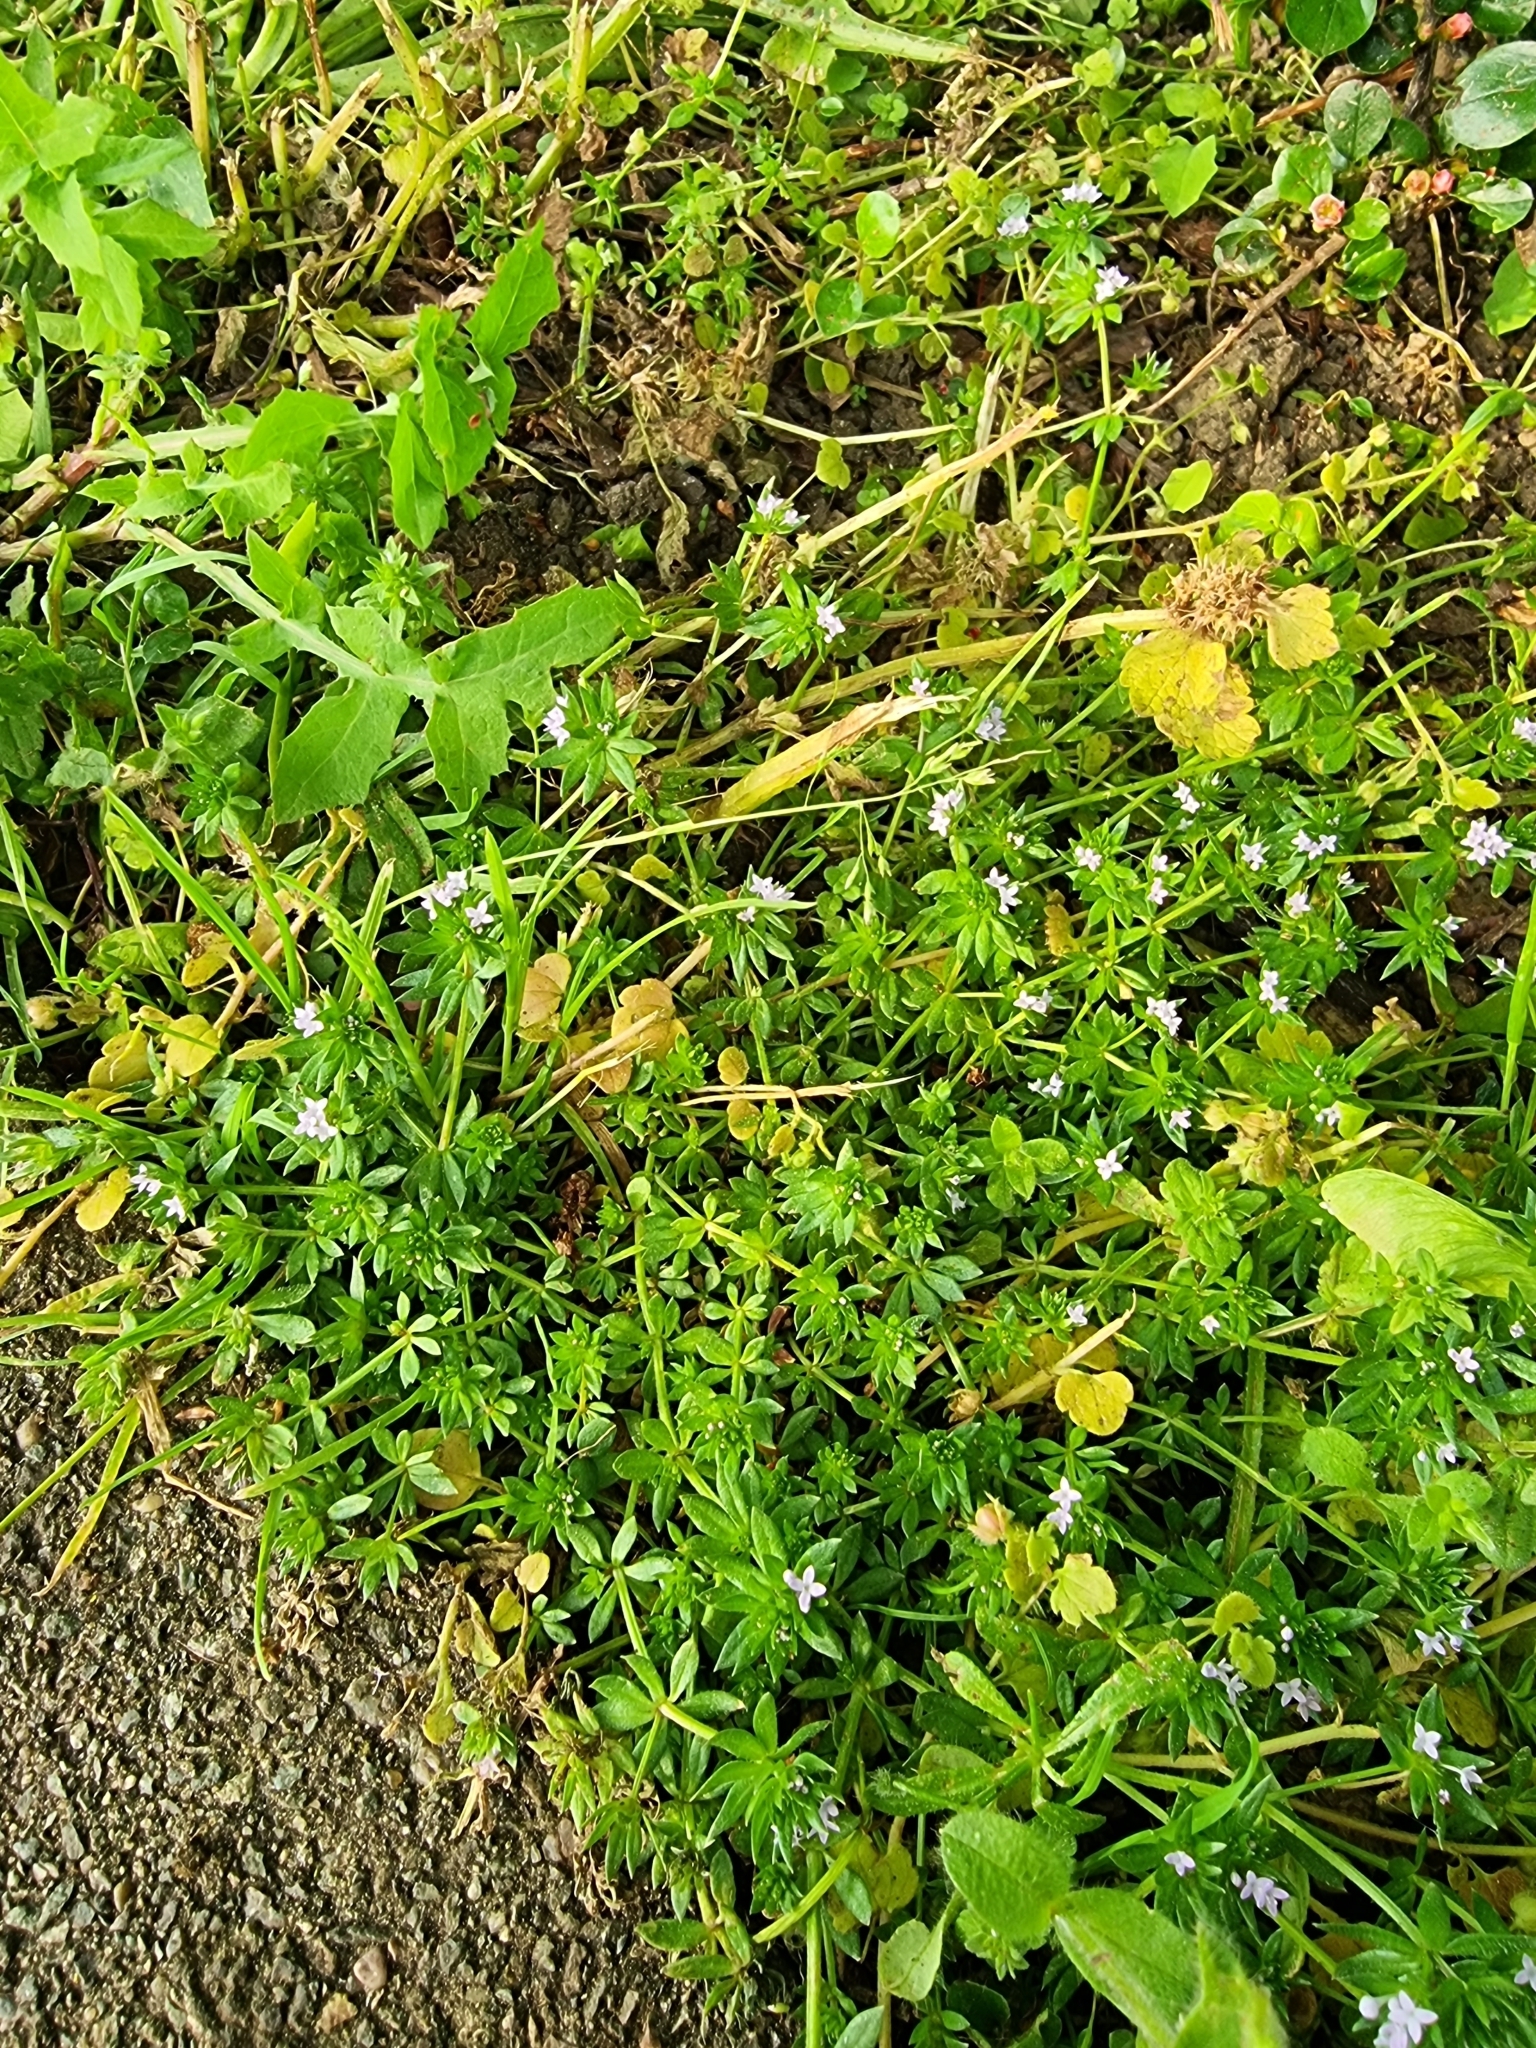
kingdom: Plantae
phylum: Tracheophyta
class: Magnoliopsida
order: Gentianales
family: Rubiaceae
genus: Sherardia
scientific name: Sherardia arvensis
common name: Field madder
